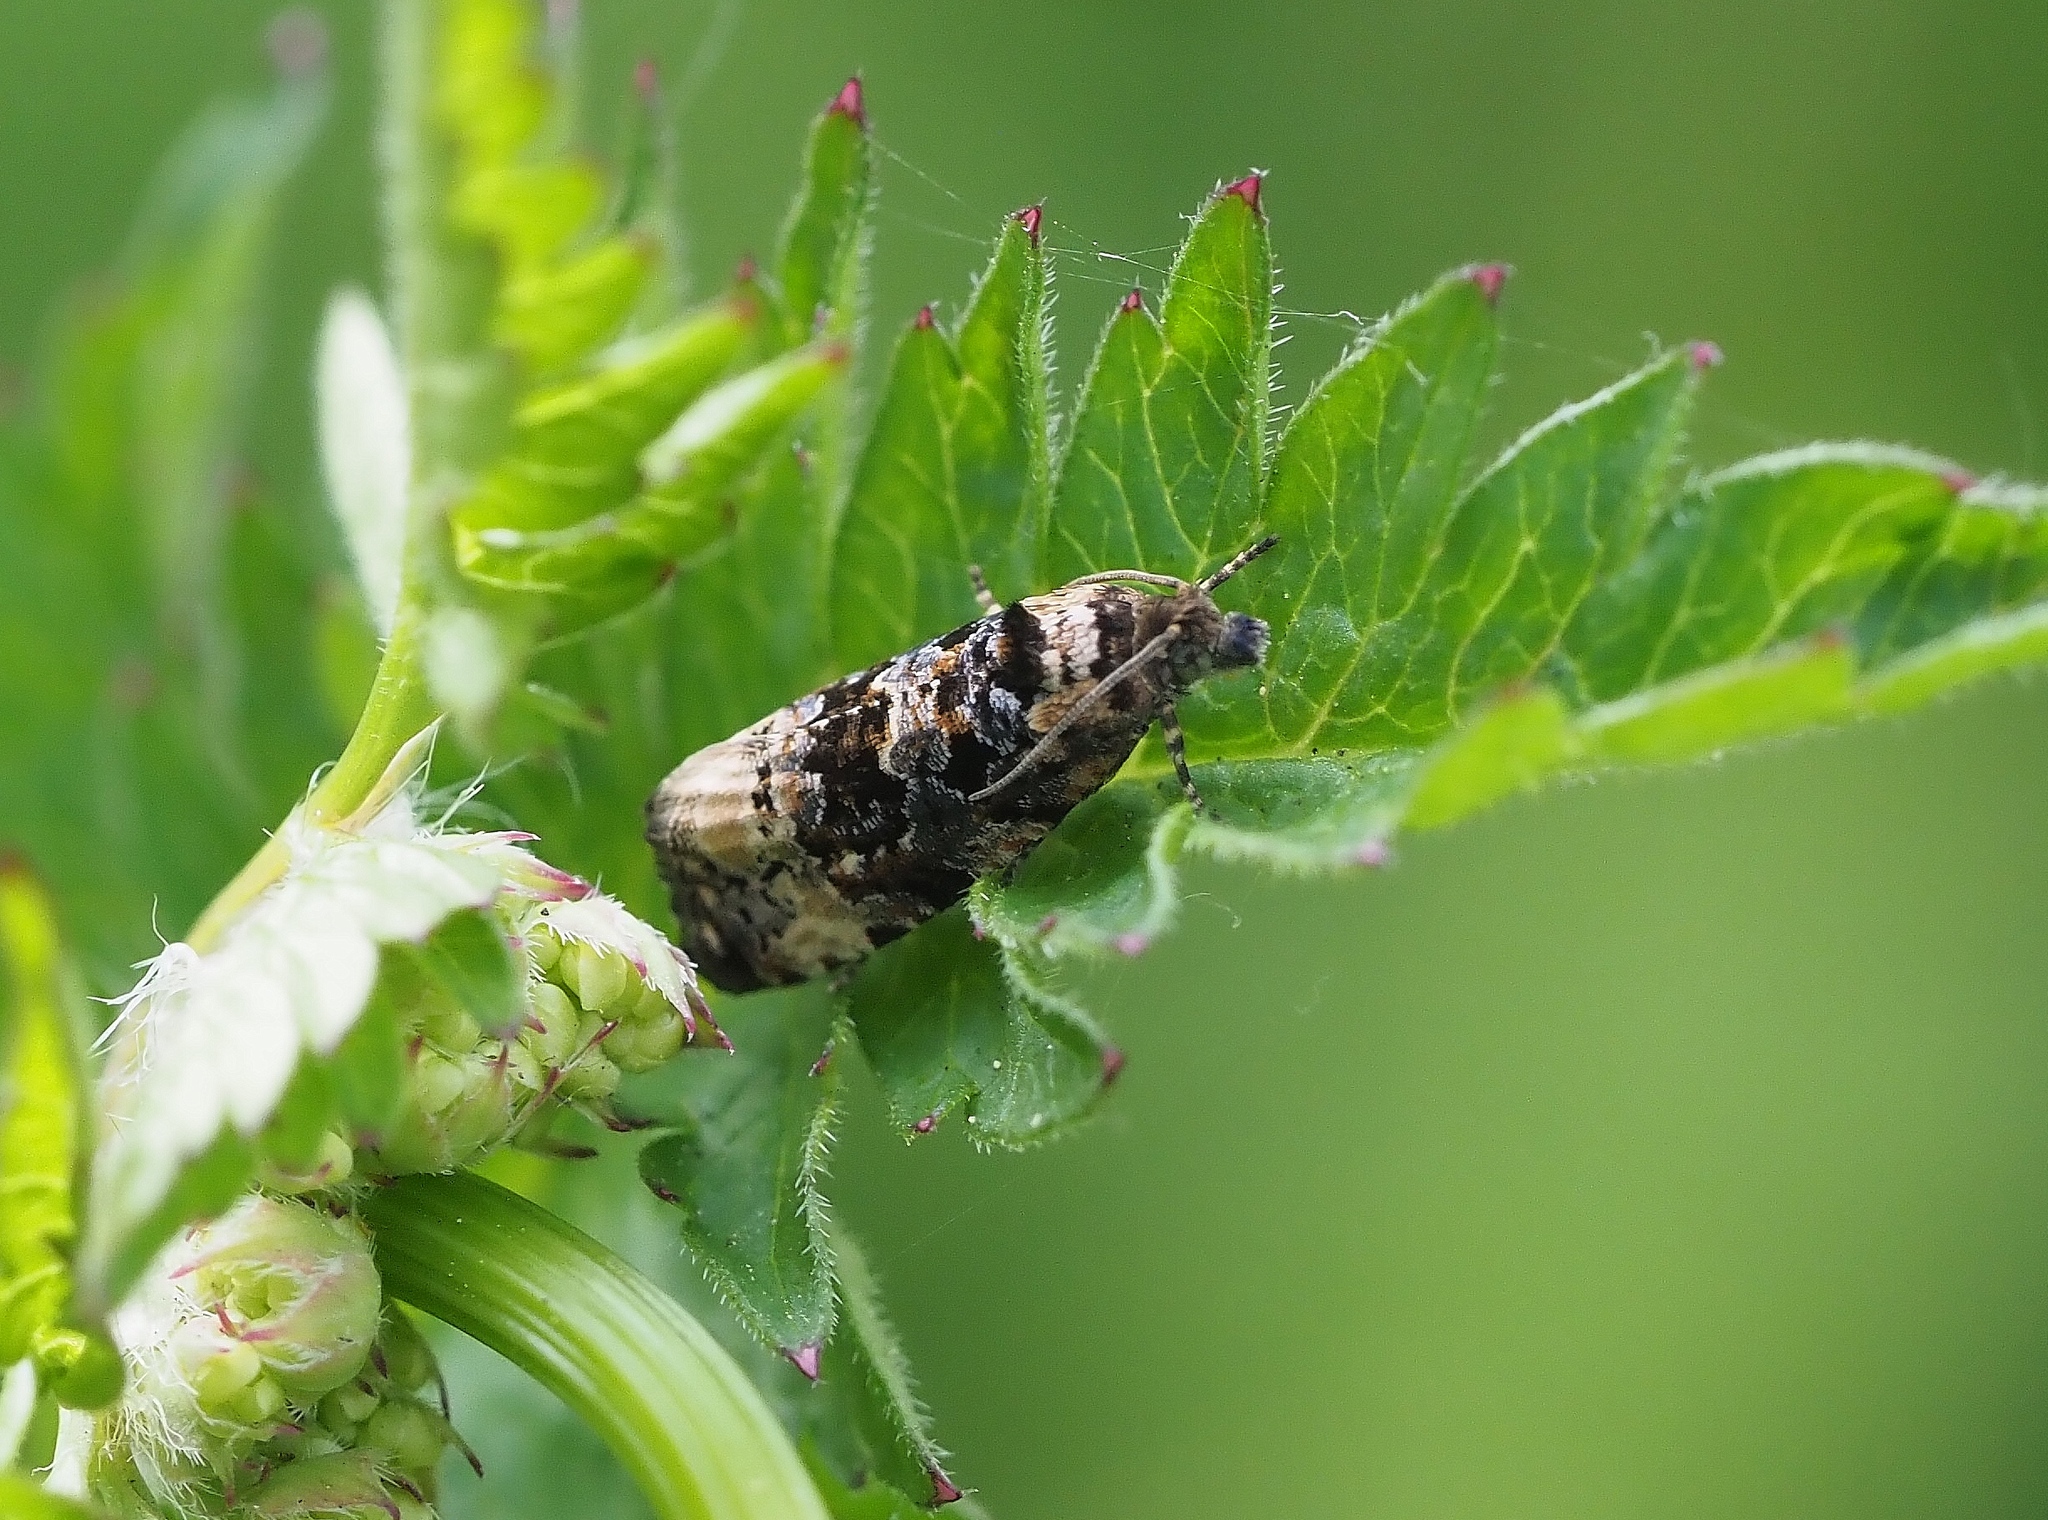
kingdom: Animalia
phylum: Arthropoda
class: Insecta
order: Lepidoptera
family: Tortricidae
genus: Hedya
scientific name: Hedya nubiferana
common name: Marbled orchard tortrix
